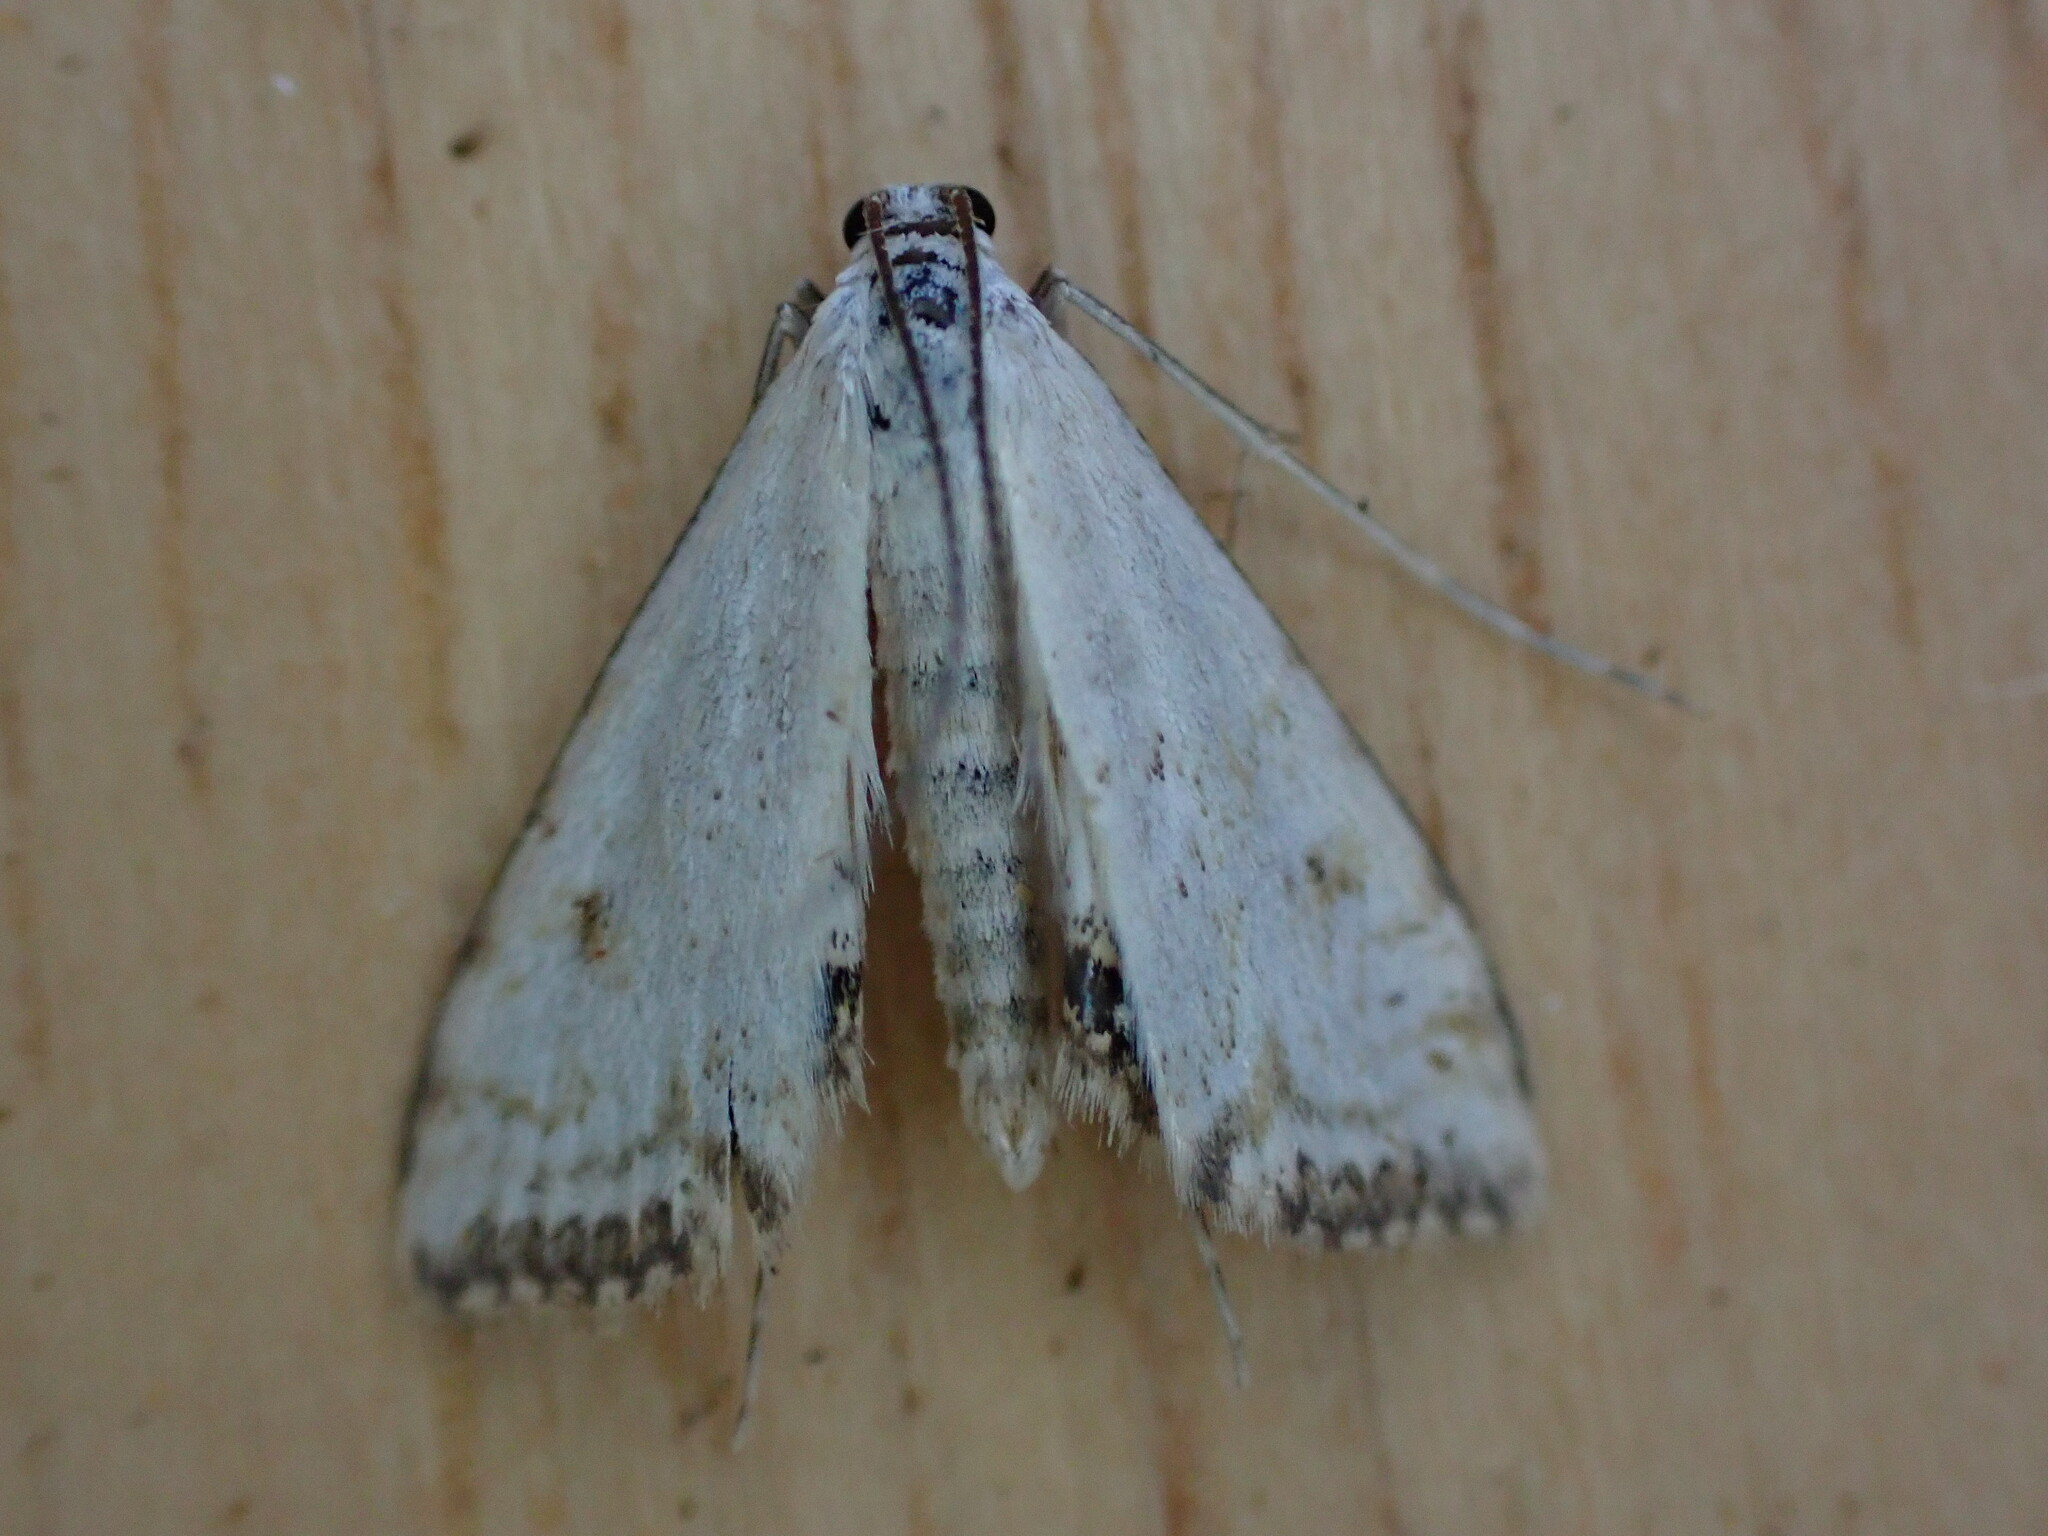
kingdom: Animalia
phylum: Arthropoda
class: Insecta
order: Lepidoptera
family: Crambidae
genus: Cataclysta
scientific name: Cataclysta lemnata
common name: Small china-mark
